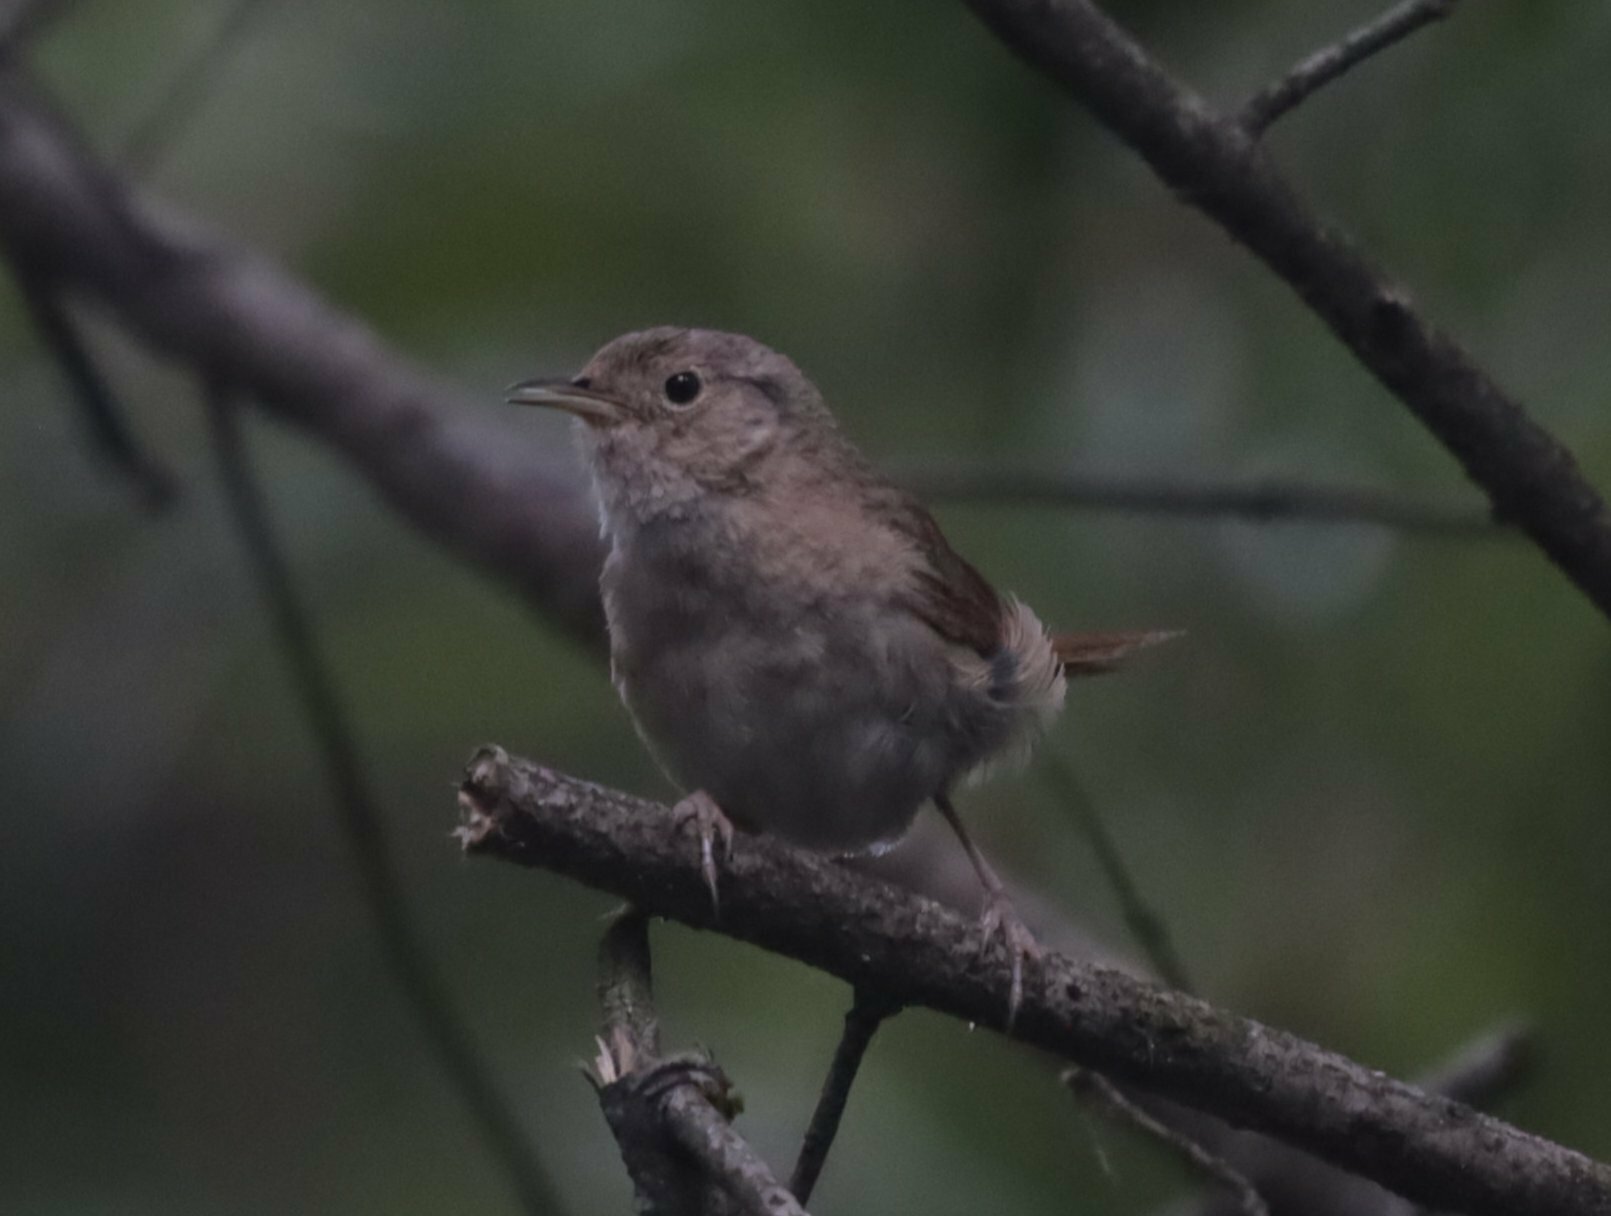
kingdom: Animalia
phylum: Chordata
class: Aves
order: Passeriformes
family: Troglodytidae
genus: Troglodytes
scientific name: Troglodytes aedon
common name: House wren
